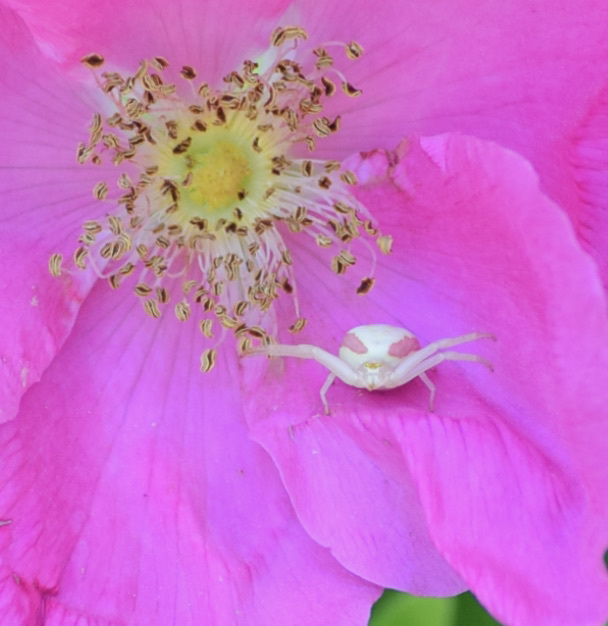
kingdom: Animalia
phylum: Arthropoda
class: Arachnida
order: Araneae
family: Thomisidae
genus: Misumena
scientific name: Misumena vatia
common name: Goldenrod crab spider
